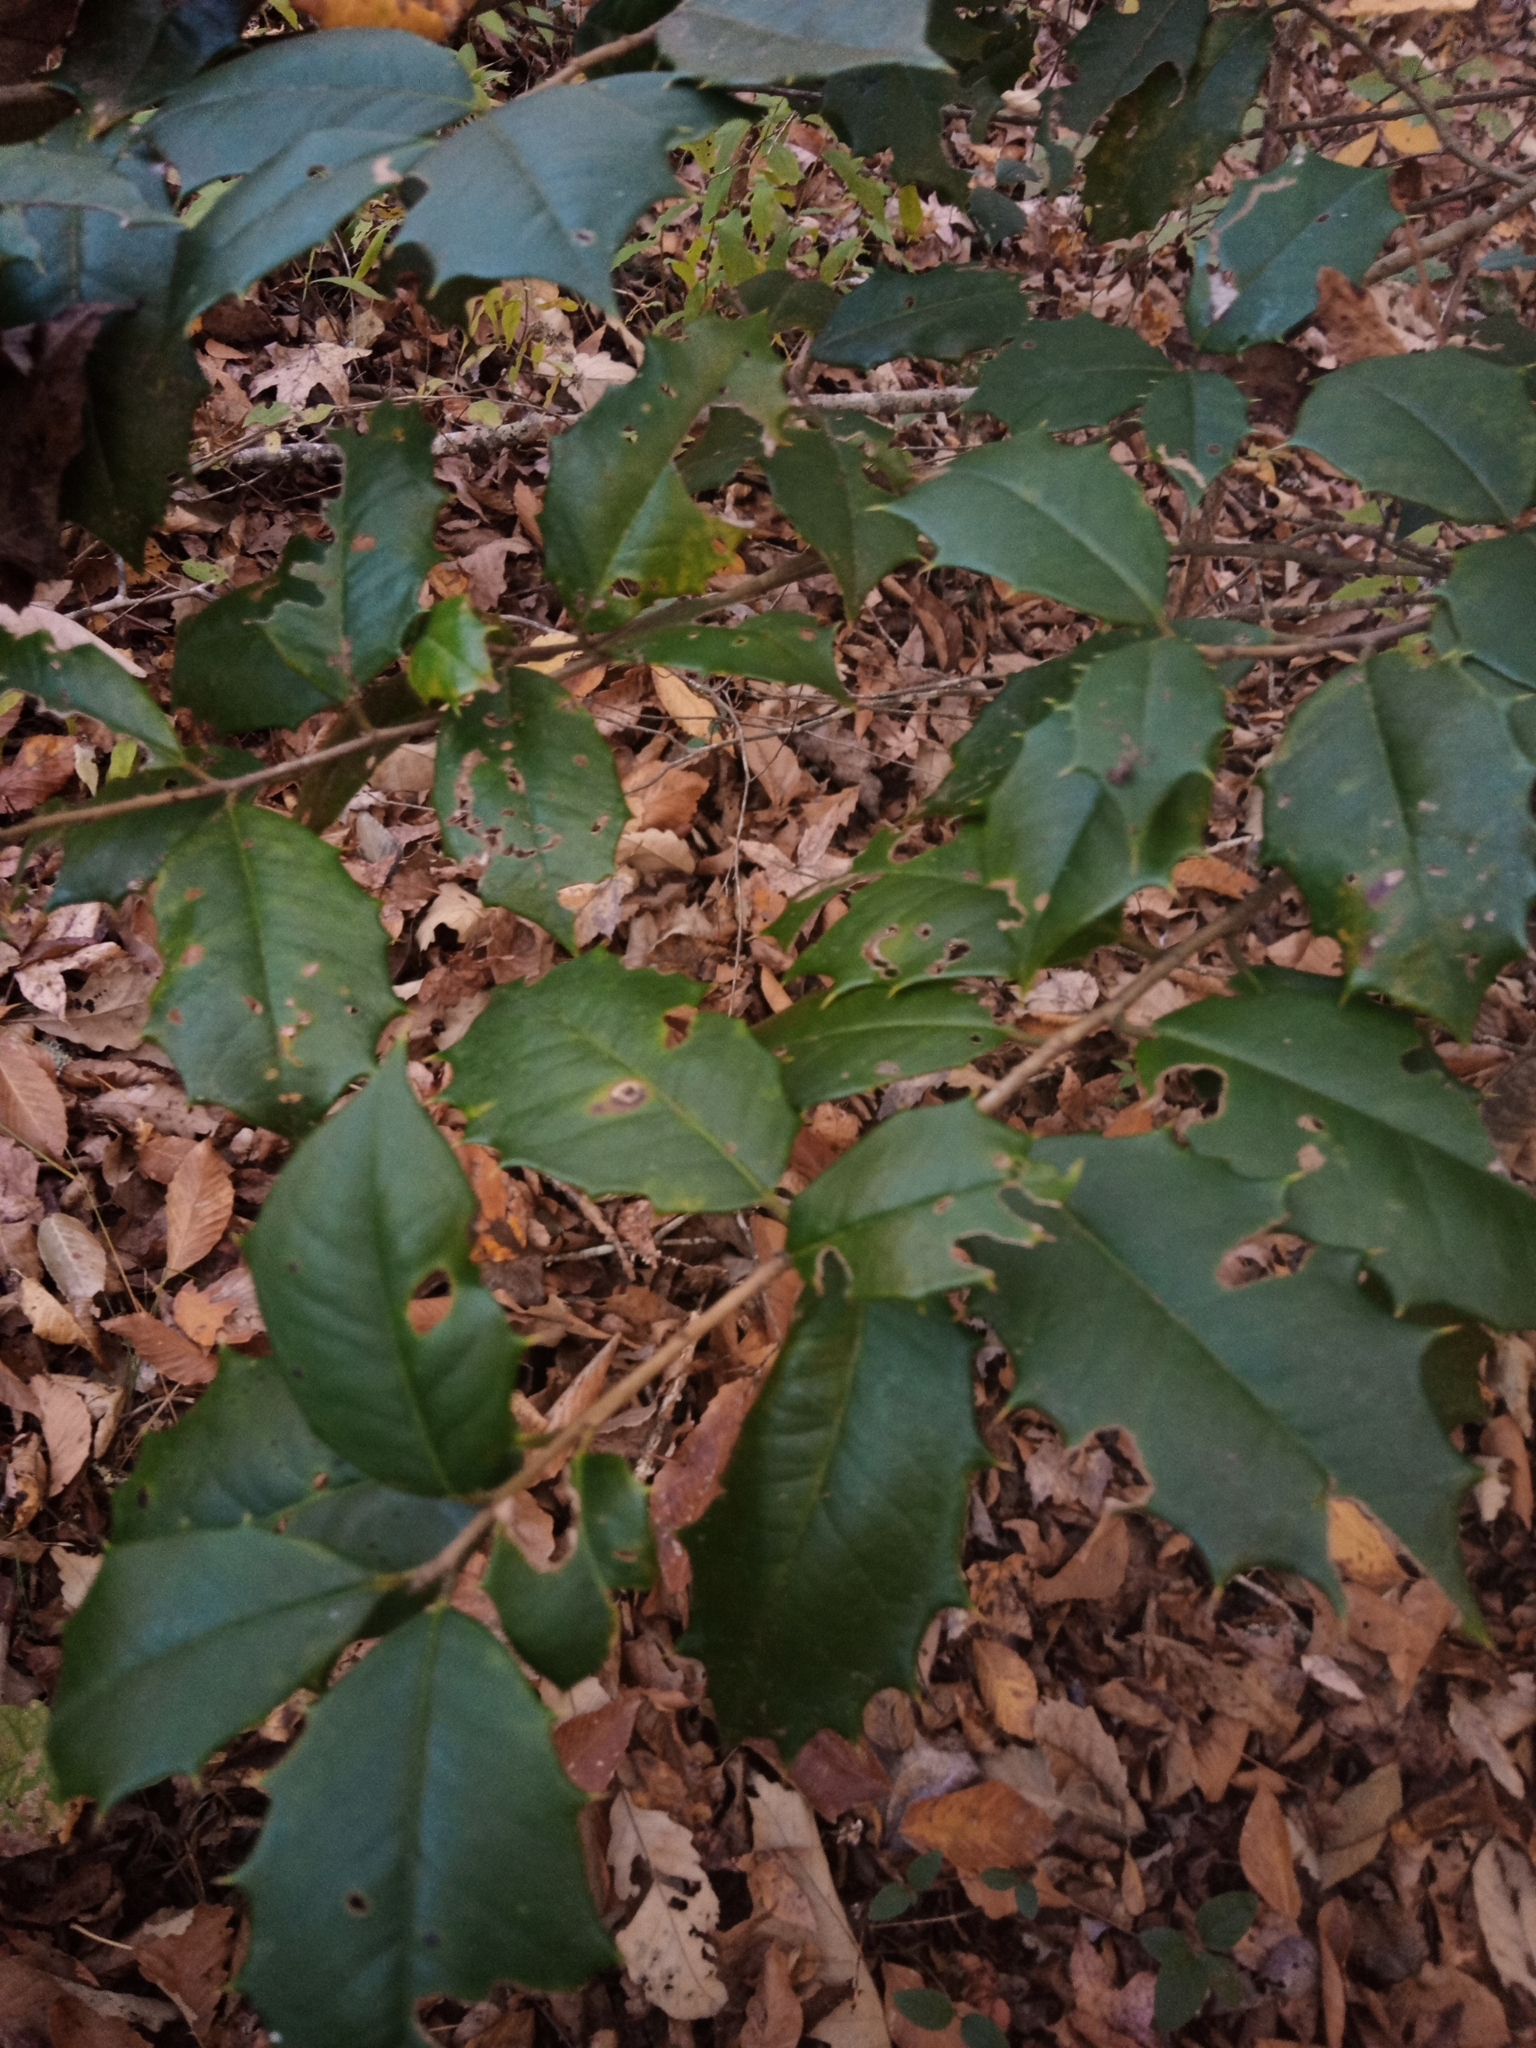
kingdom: Plantae
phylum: Tracheophyta
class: Magnoliopsida
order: Aquifoliales
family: Aquifoliaceae
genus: Ilex
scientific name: Ilex opaca
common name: American holly
